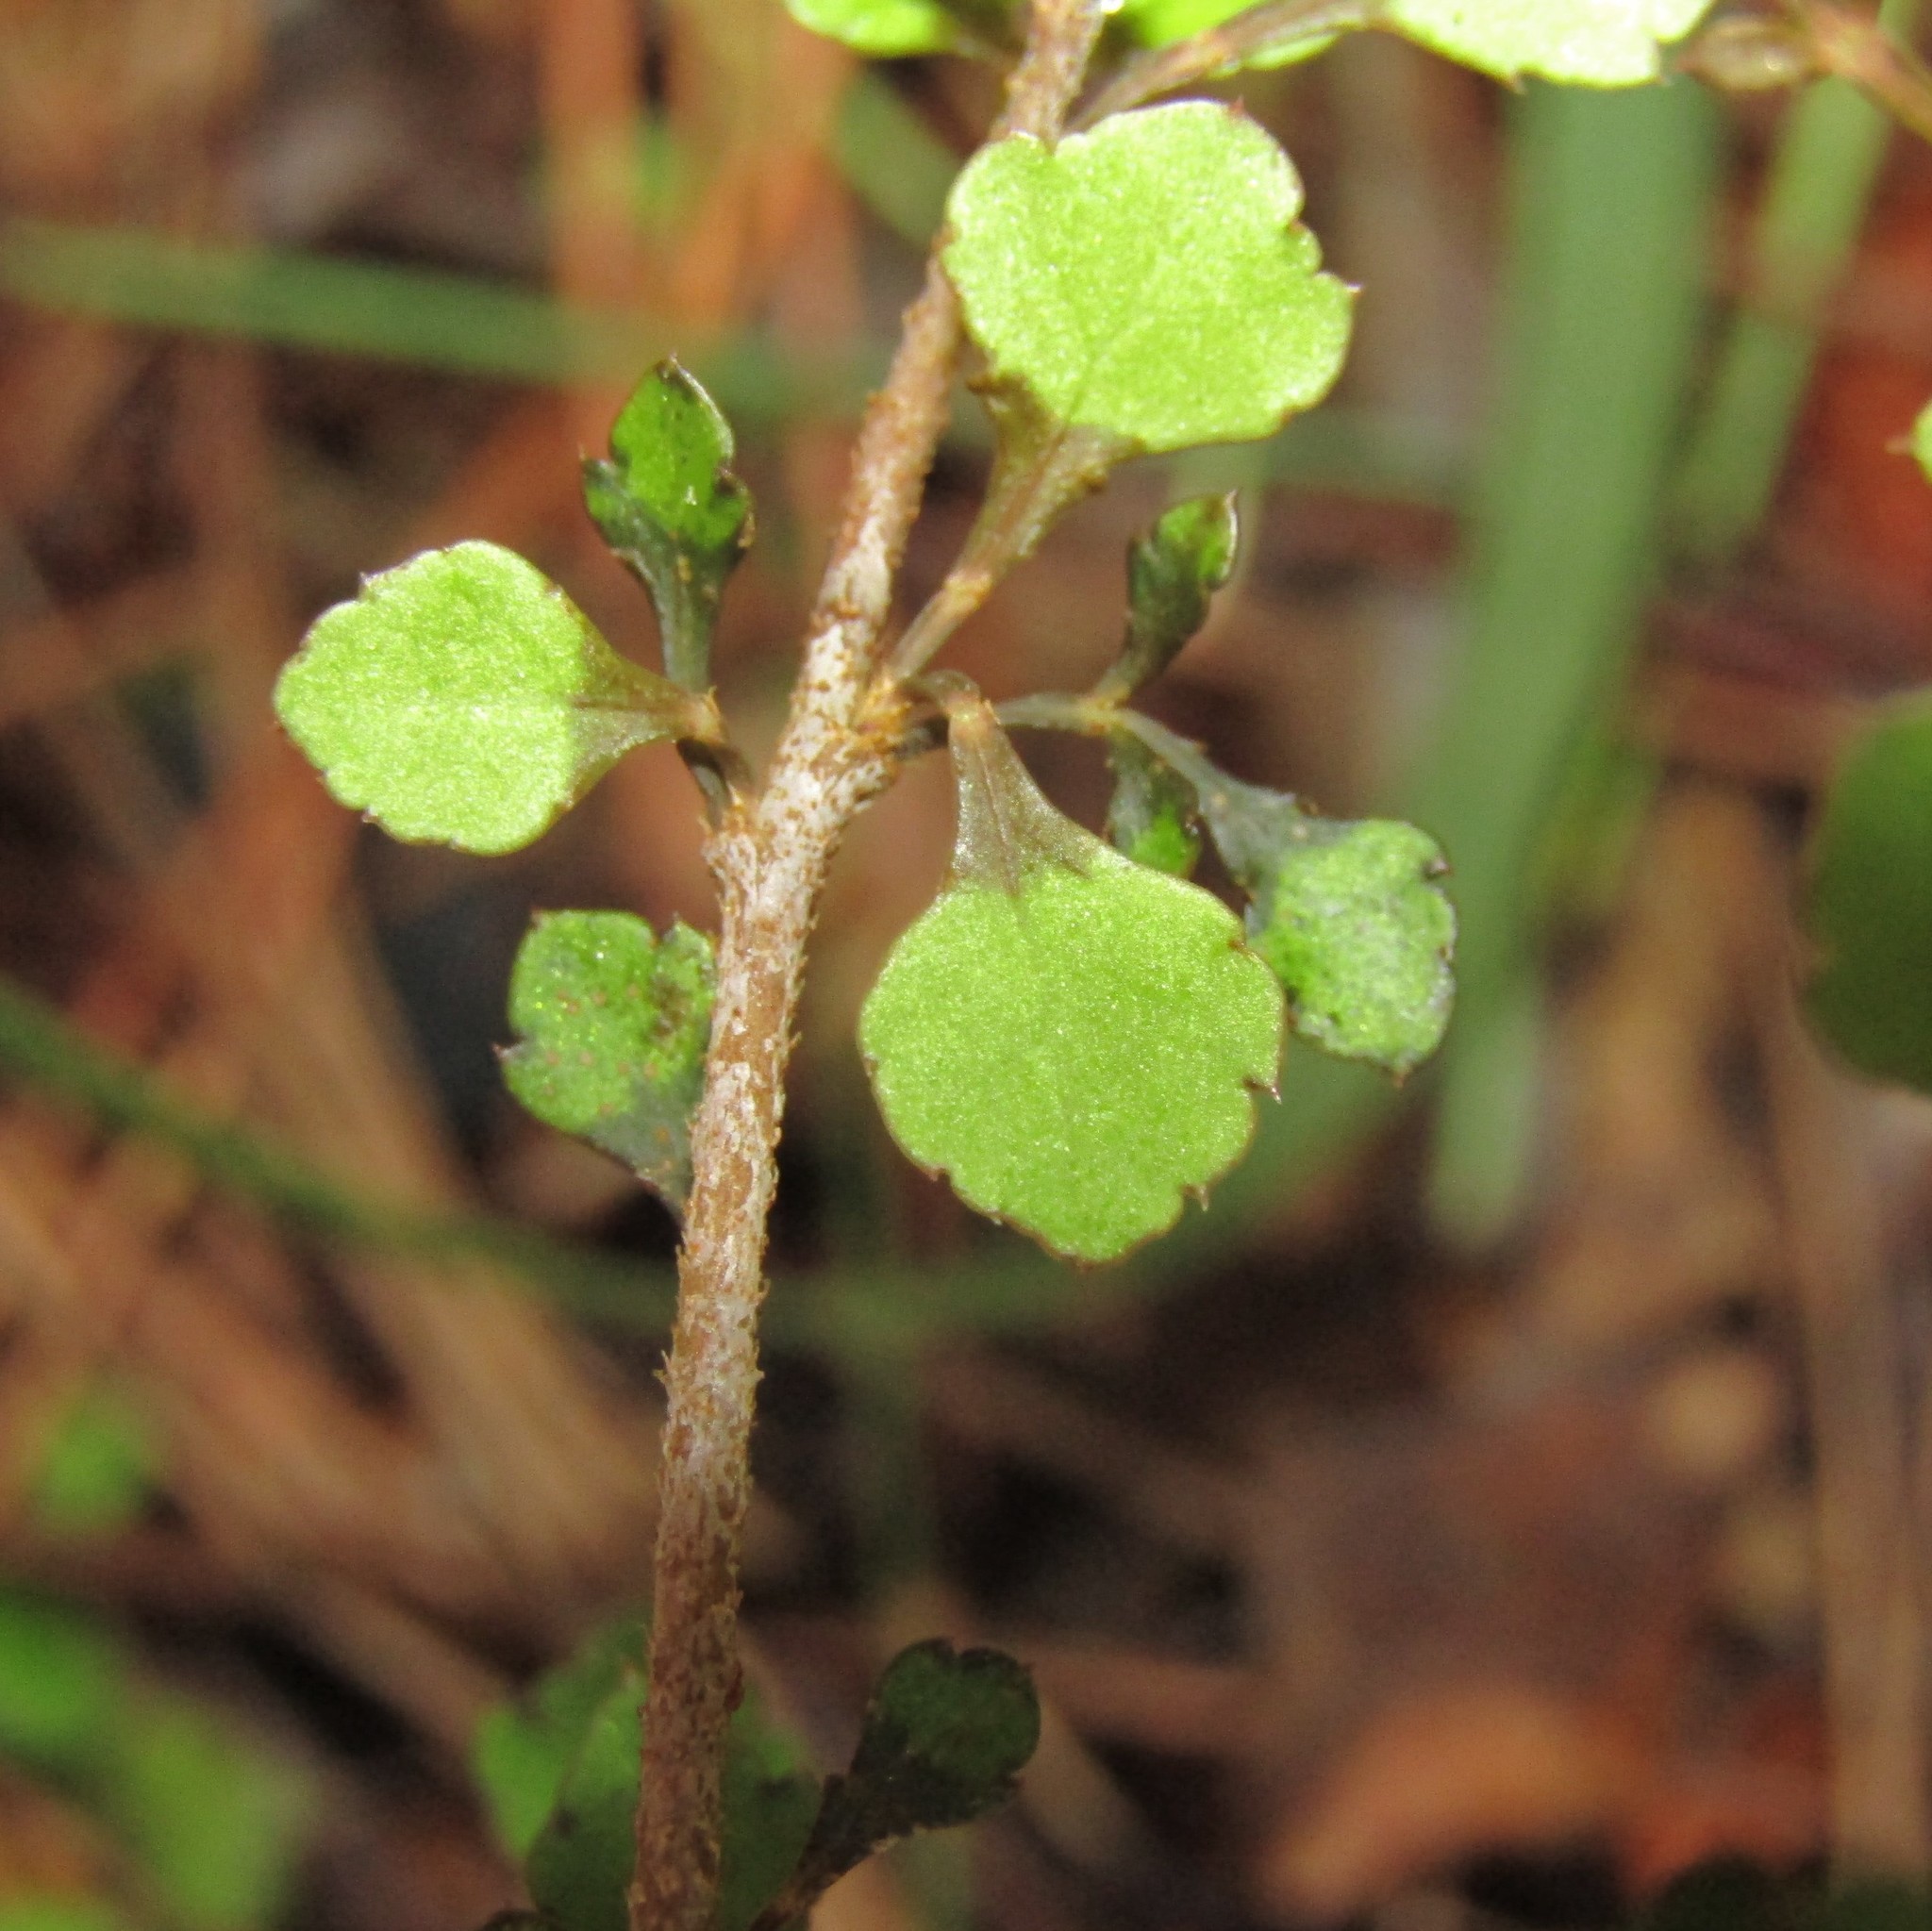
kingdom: Plantae
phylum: Tracheophyta
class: Magnoliopsida
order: Apiales
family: Araliaceae
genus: Raukaua
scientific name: Raukaua anomalus
